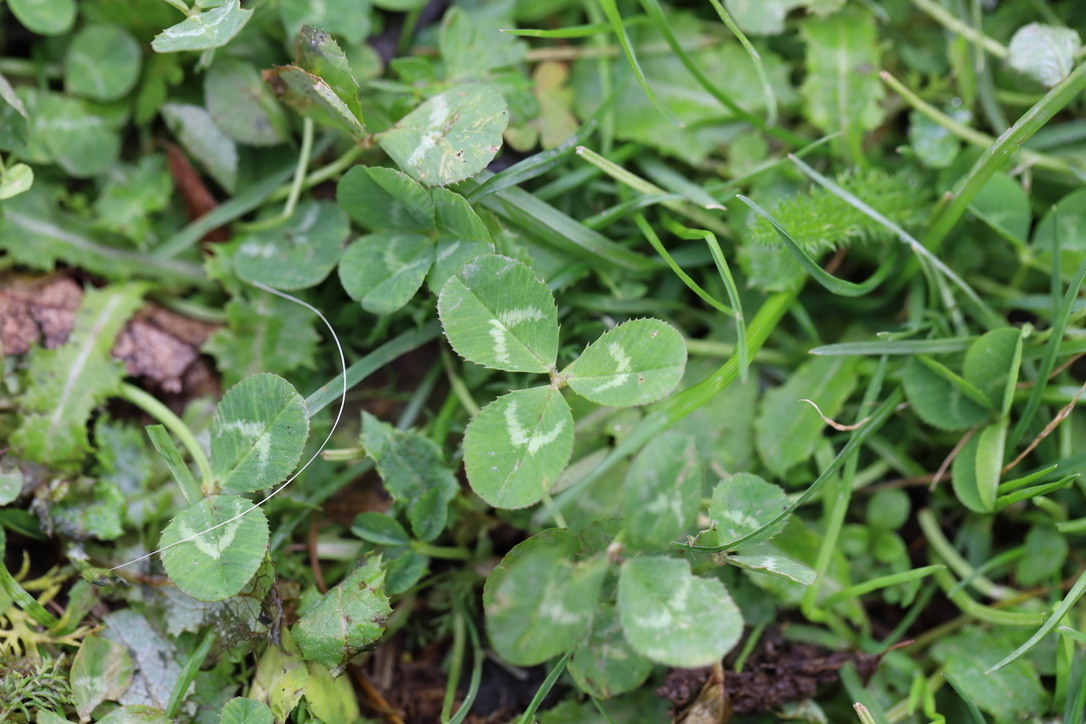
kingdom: Plantae
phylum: Tracheophyta
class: Magnoliopsida
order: Fabales
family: Fabaceae
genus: Trifolium
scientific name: Trifolium repens
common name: White clover
